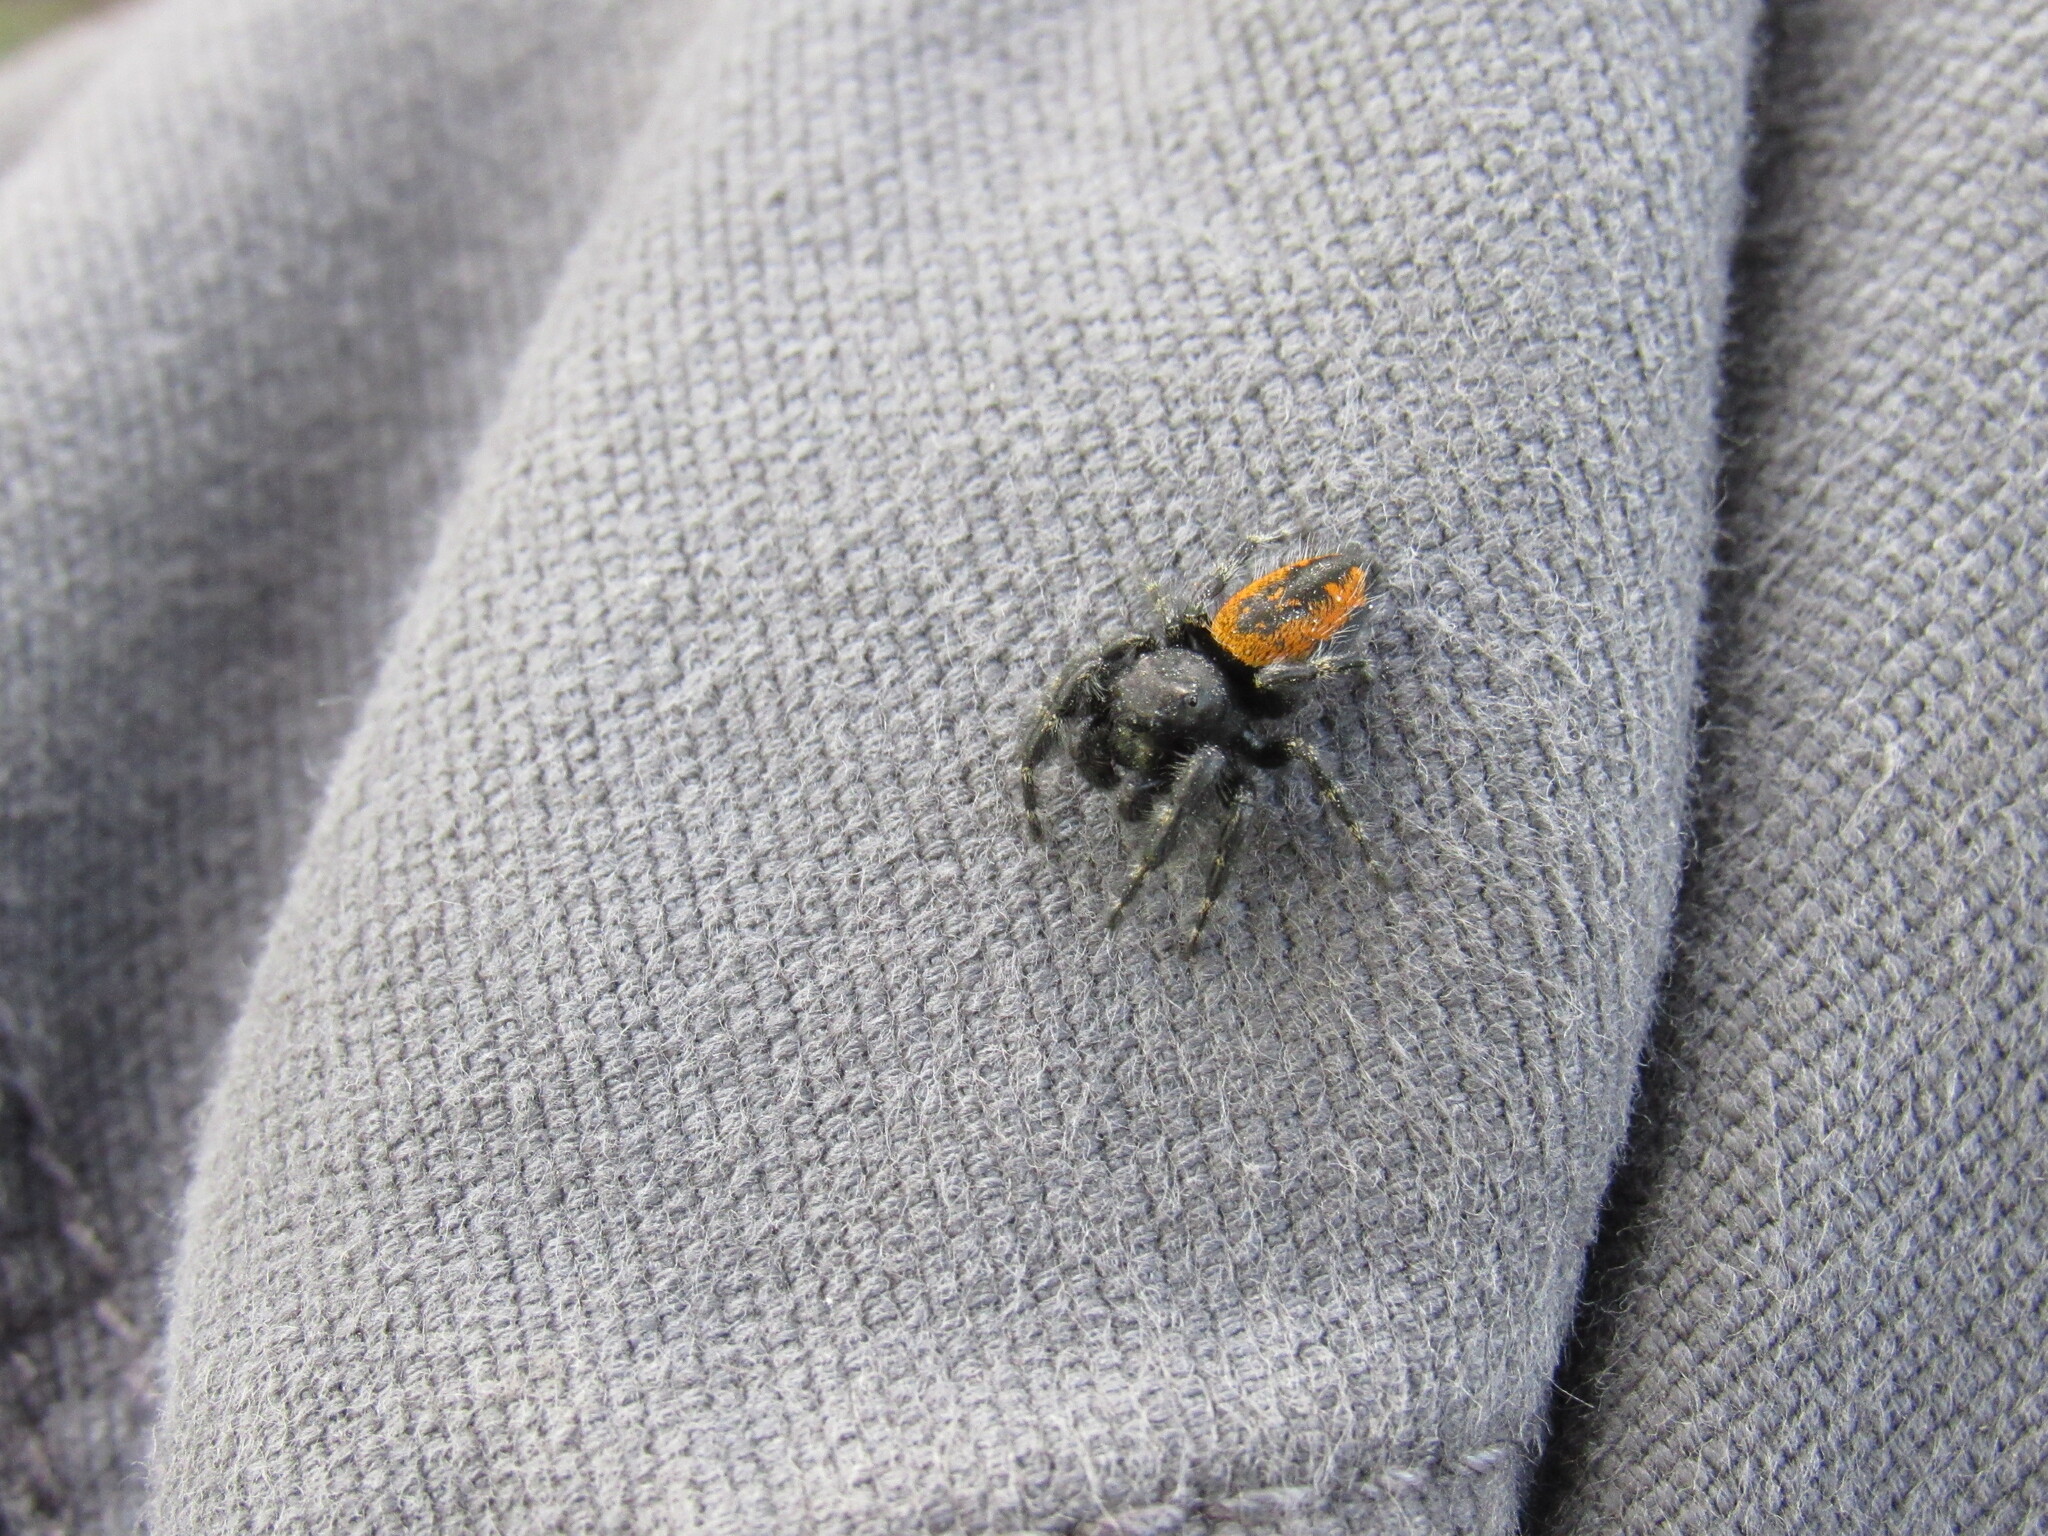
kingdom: Animalia
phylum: Arthropoda
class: Arachnida
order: Araneae
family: Salticidae
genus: Phidippus
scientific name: Phidippus borealis
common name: Boreal tufted jumping spider
